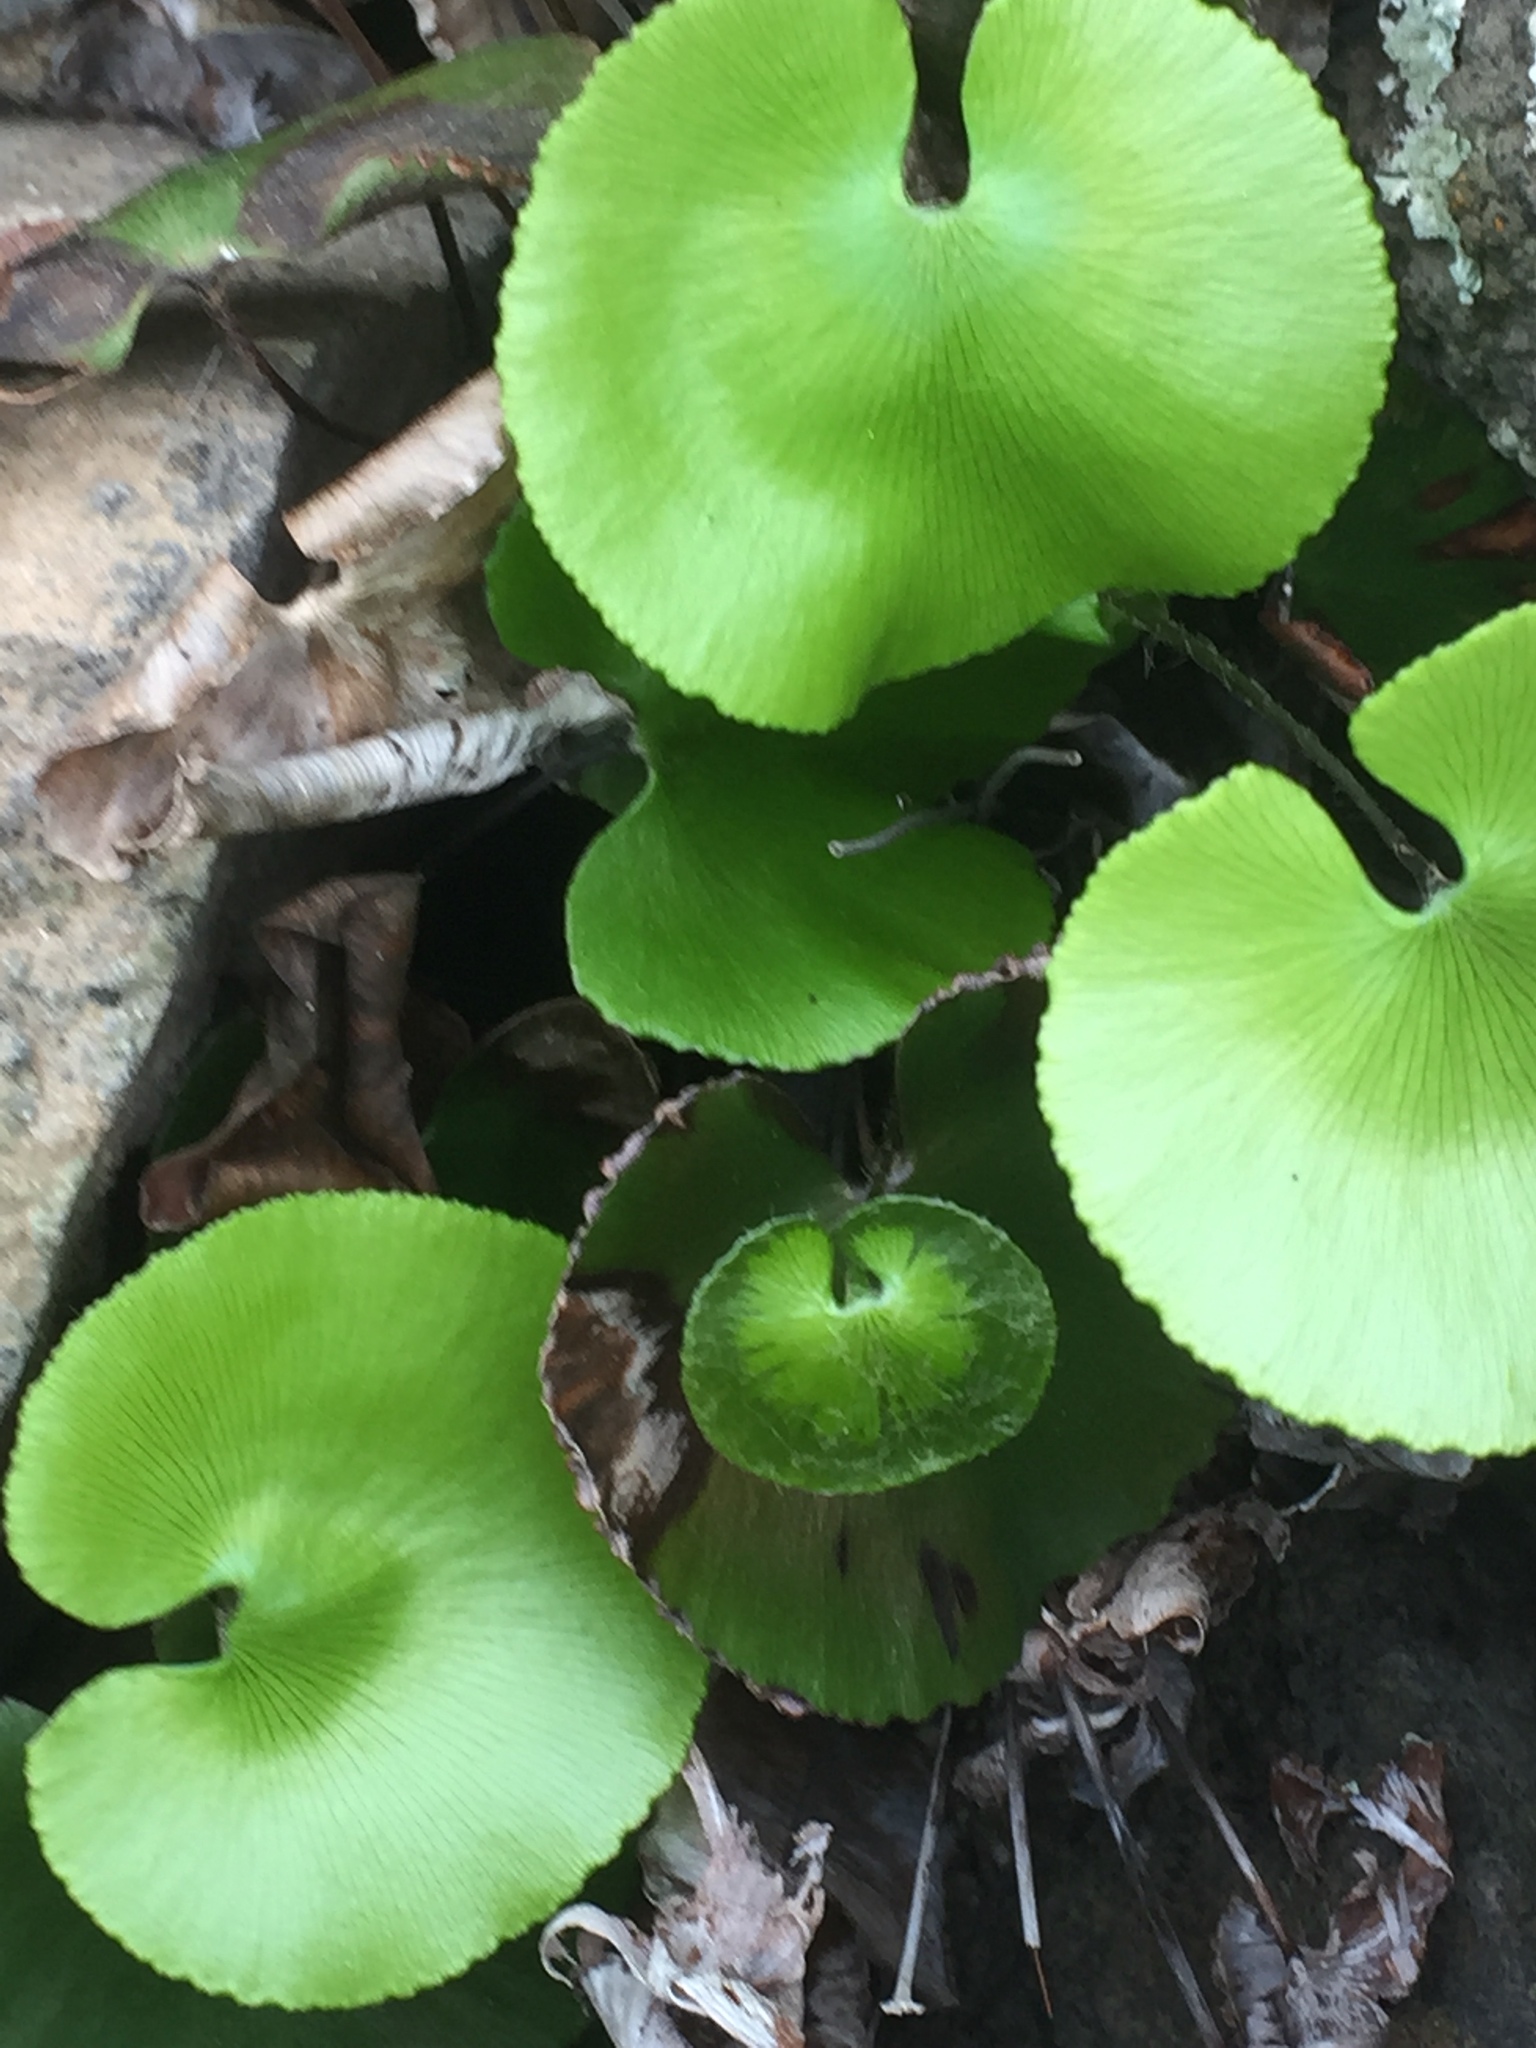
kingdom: Plantae
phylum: Tracheophyta
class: Polypodiopsida
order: Polypodiales
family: Pteridaceae
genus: Adiantum
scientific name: Adiantum reniforme
